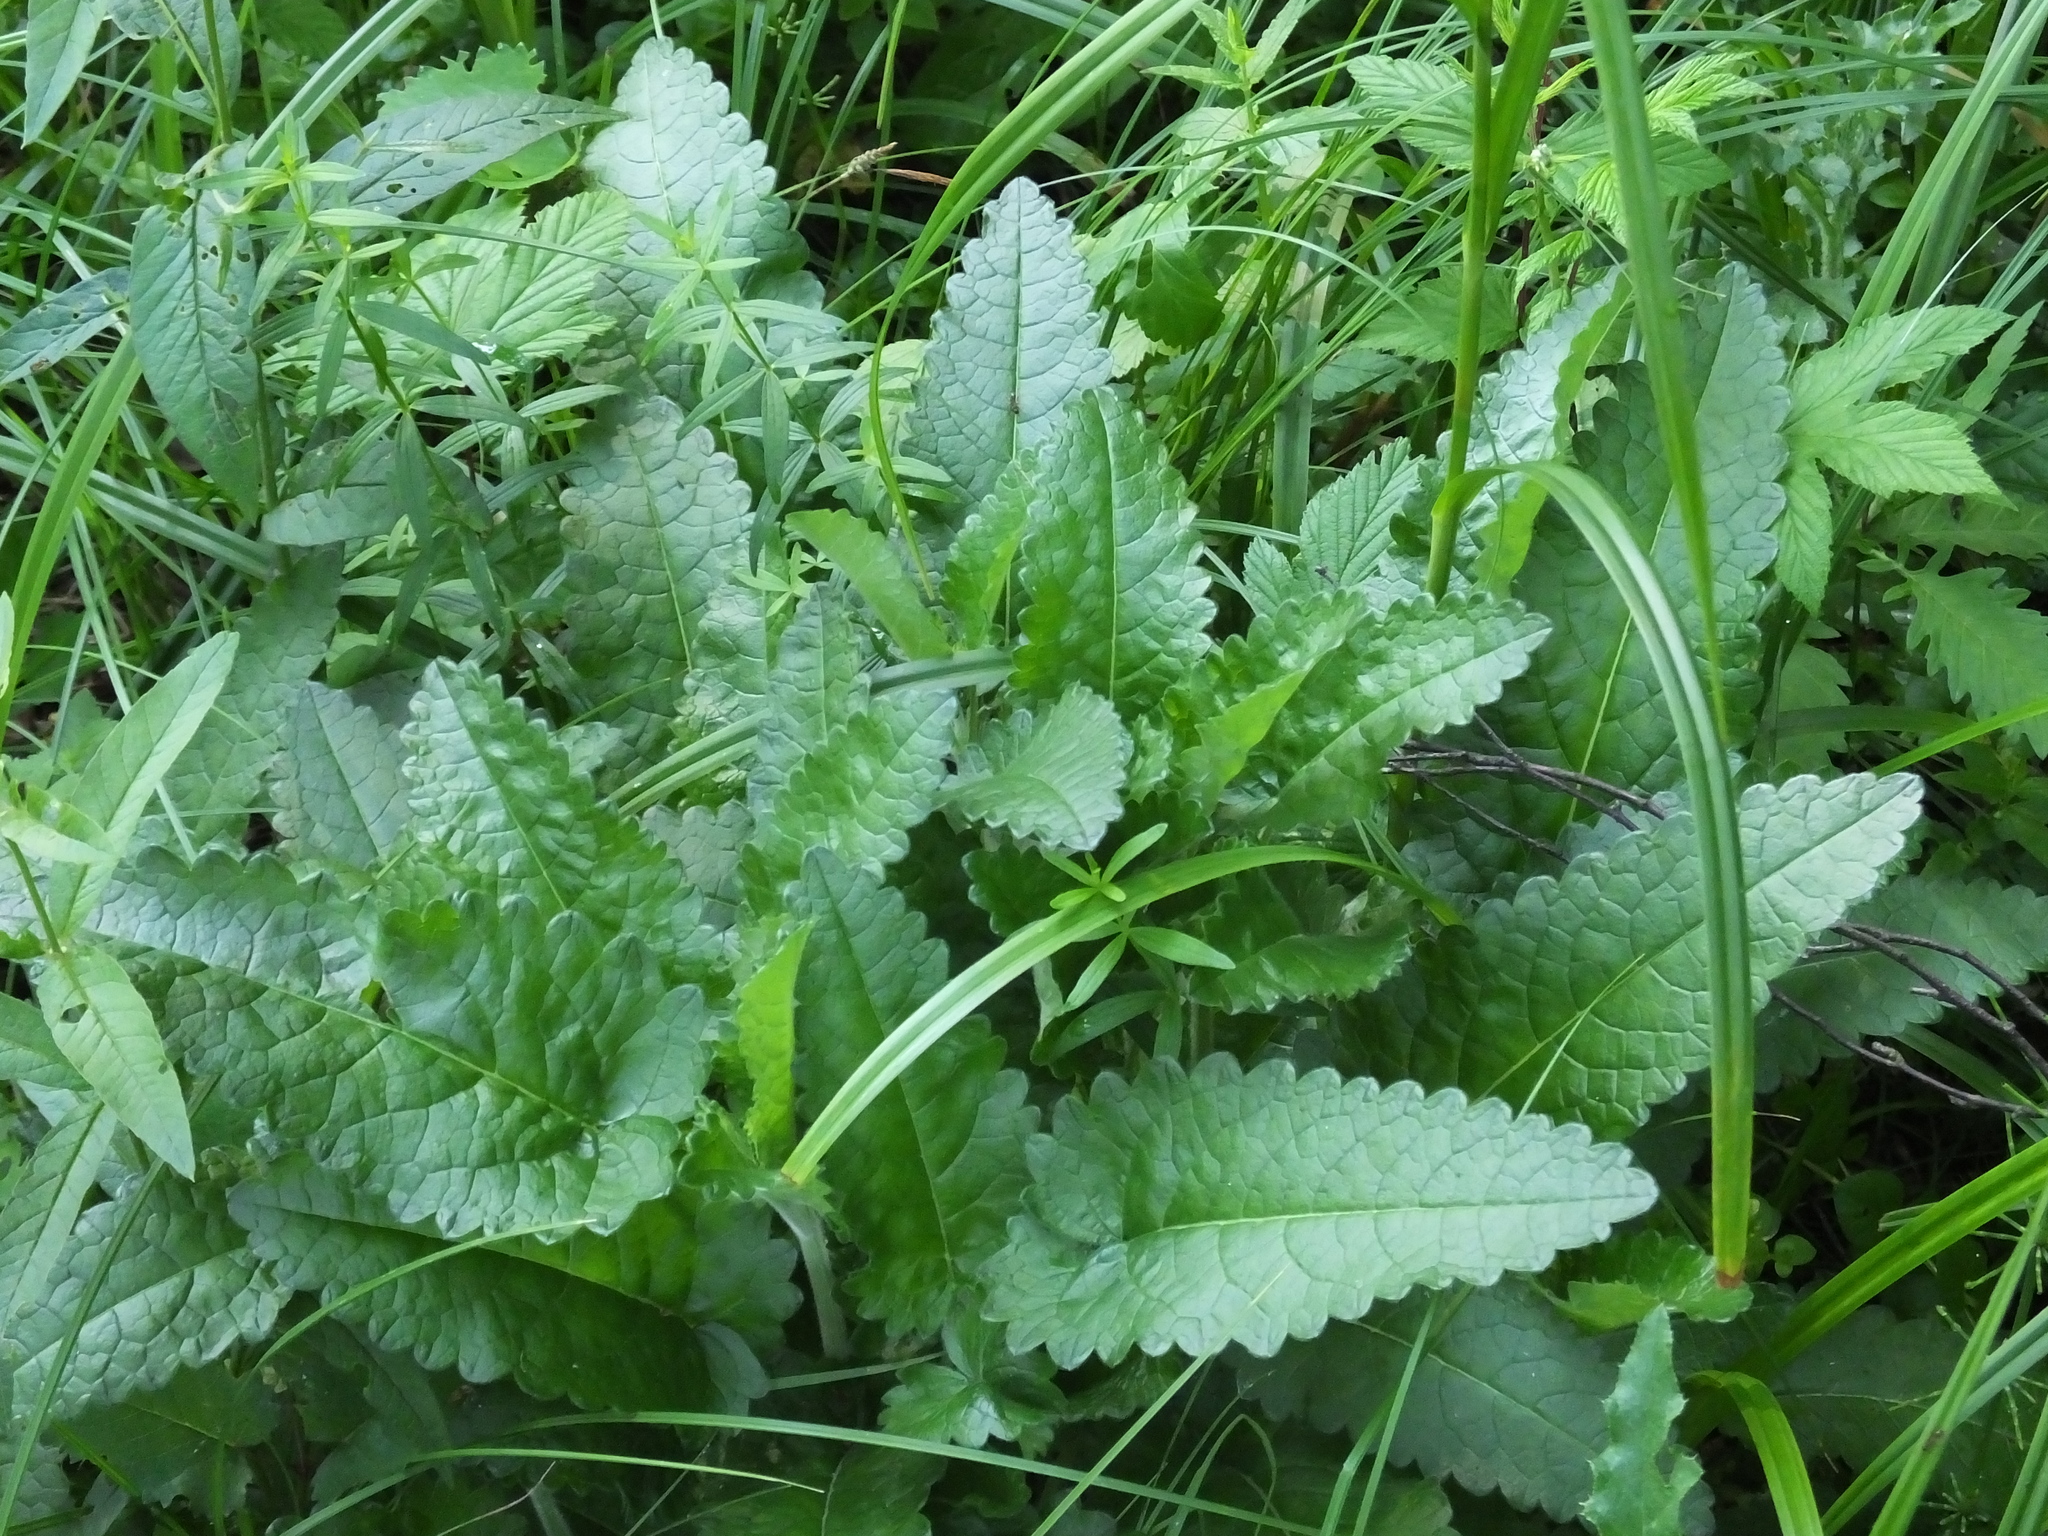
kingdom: Plantae
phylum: Tracheophyta
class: Magnoliopsida
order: Lamiales
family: Lamiaceae
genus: Betonica
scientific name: Betonica officinalis
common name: Bishop's-wort
